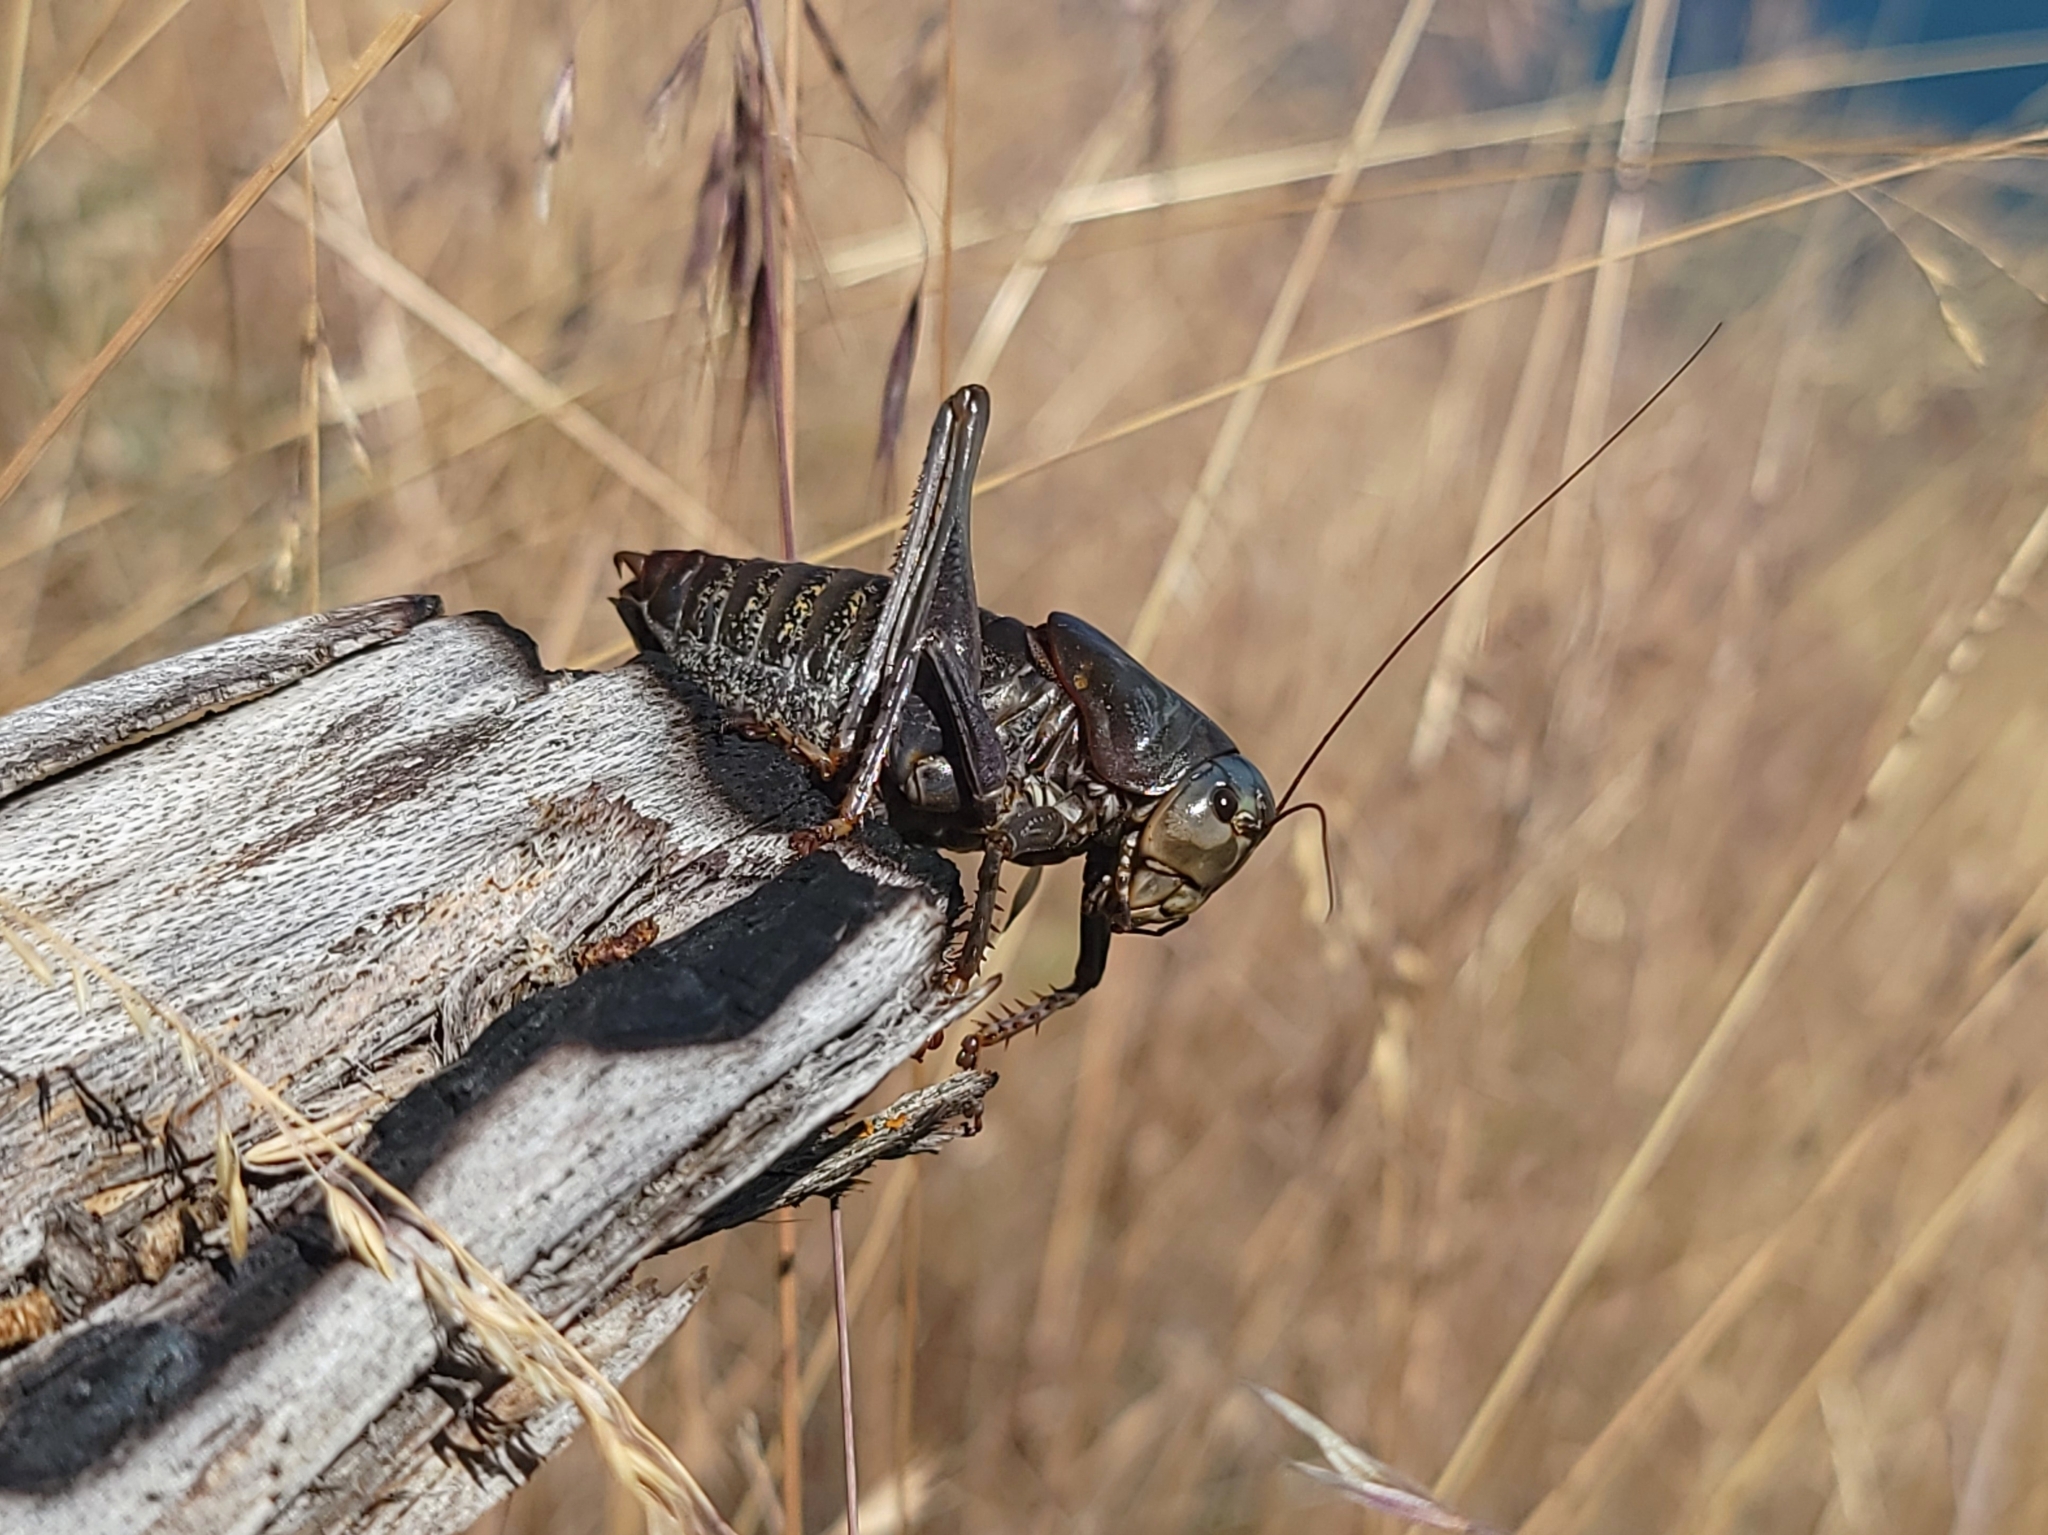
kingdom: Animalia
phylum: Arthropoda
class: Insecta
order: Orthoptera
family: Tettigoniidae
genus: Anabrus
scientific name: Anabrus simplex
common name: Mormon cricket
